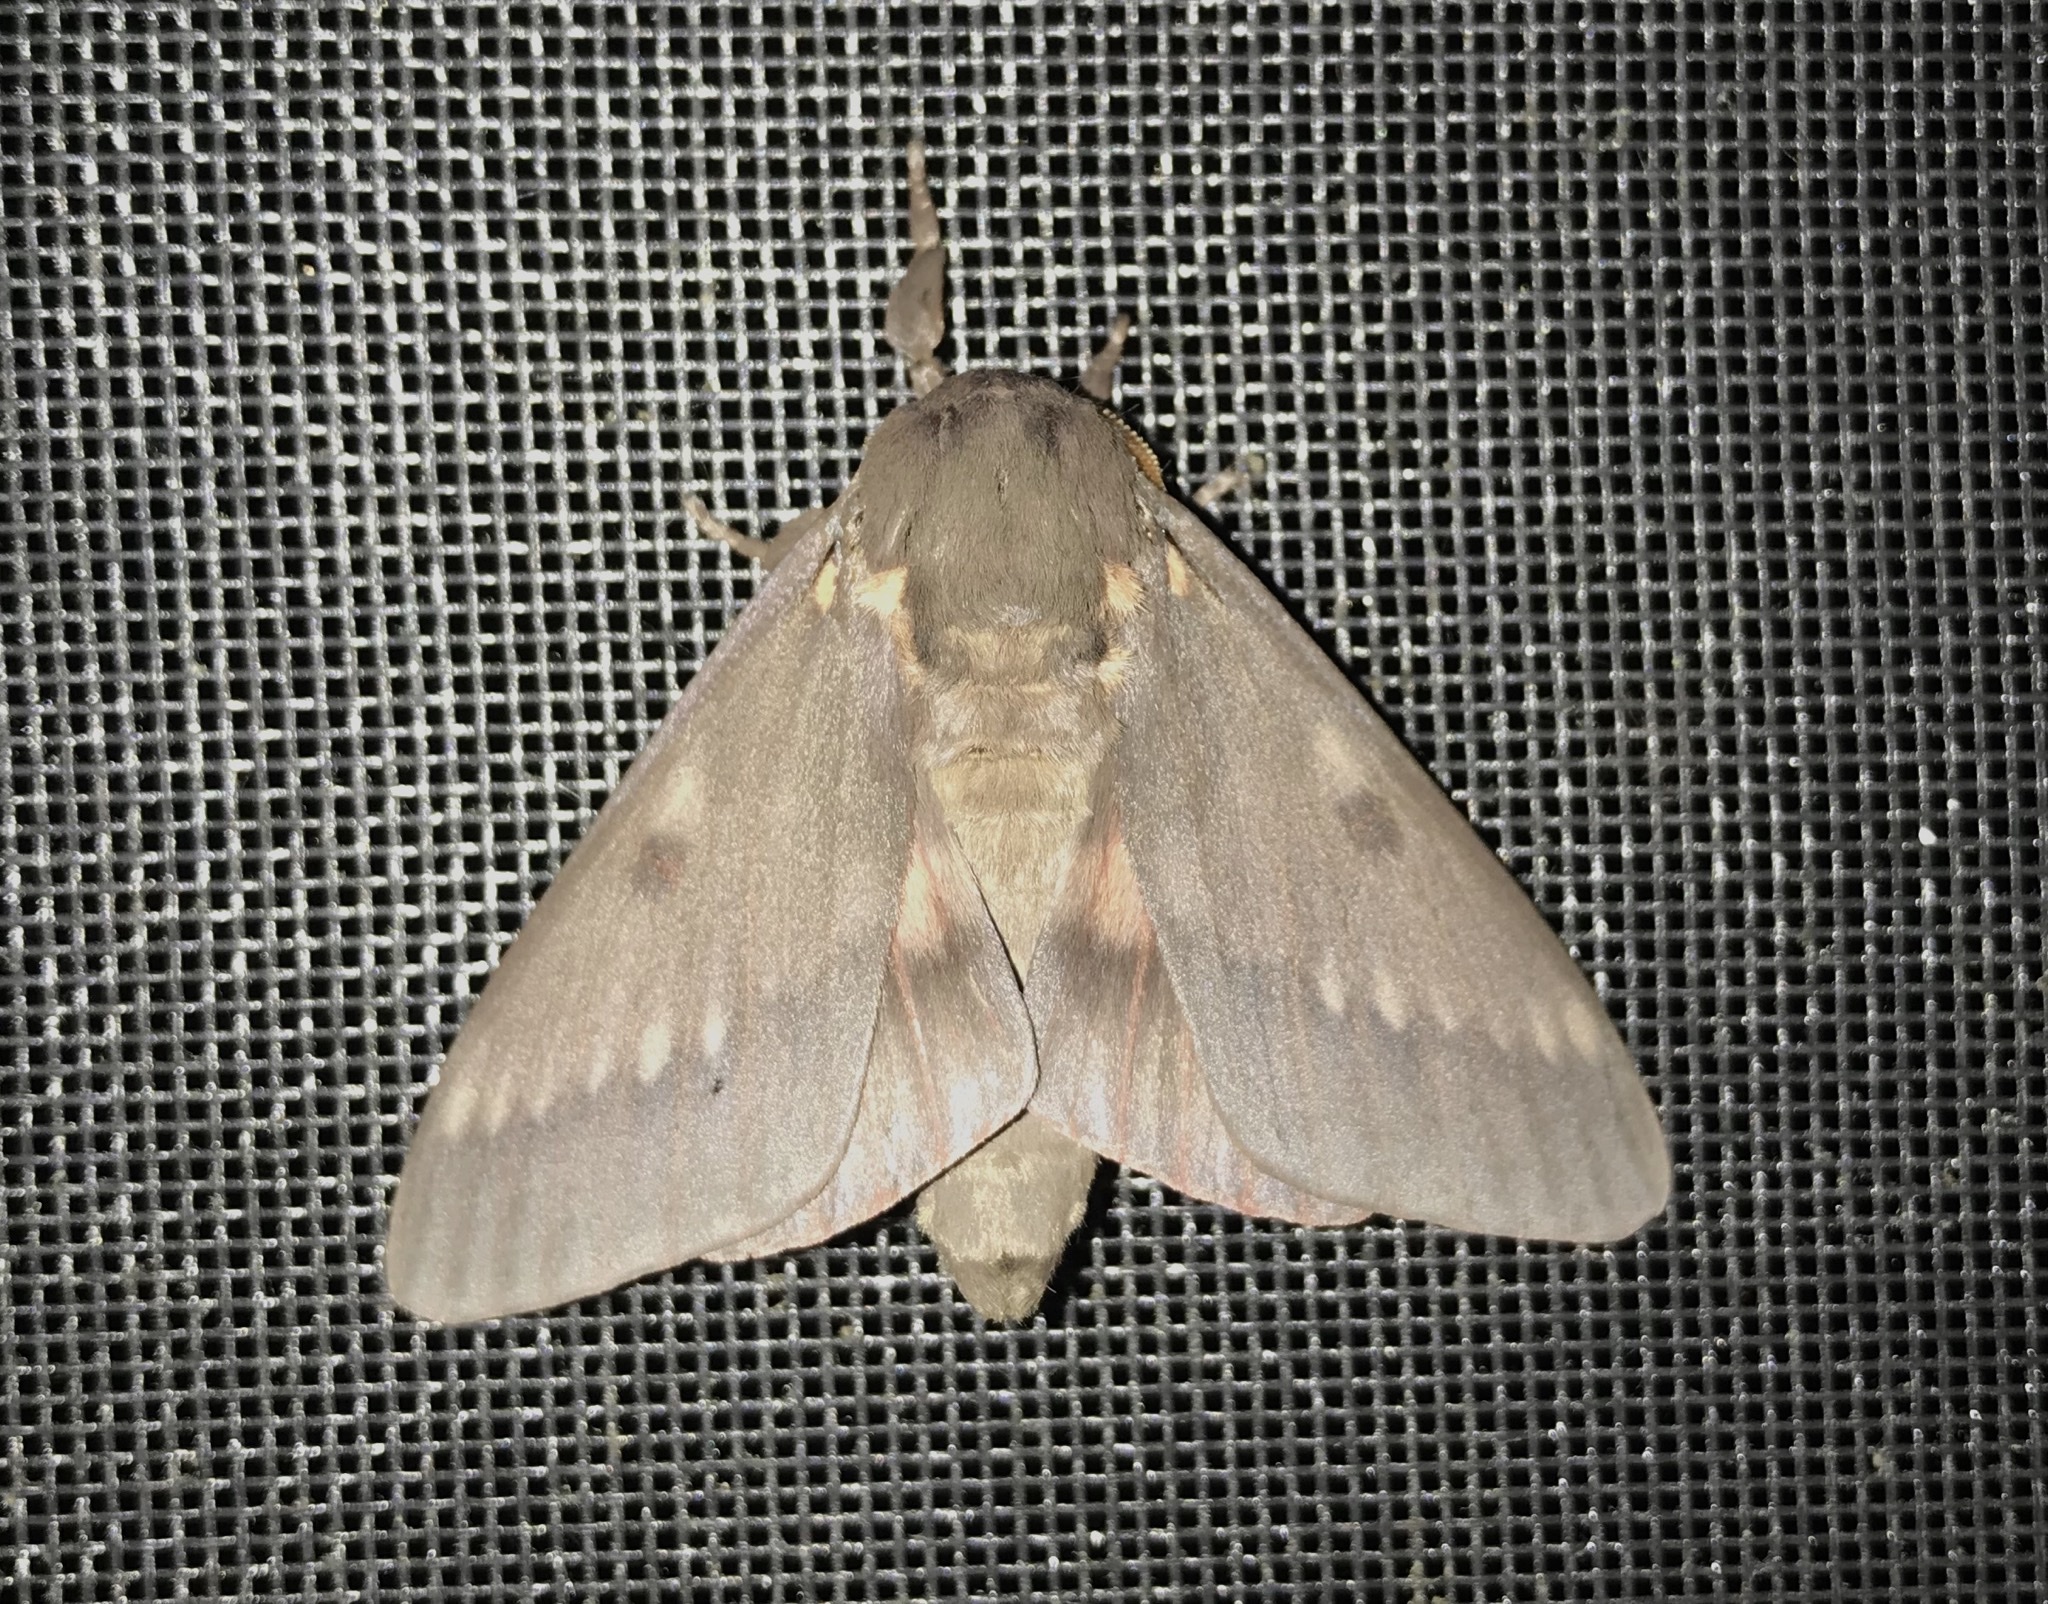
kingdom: Animalia
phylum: Arthropoda
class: Insecta
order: Lepidoptera
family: Saturniidae
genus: Citheronia
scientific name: Citheronia sepulcralis
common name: Pine-devil moth
